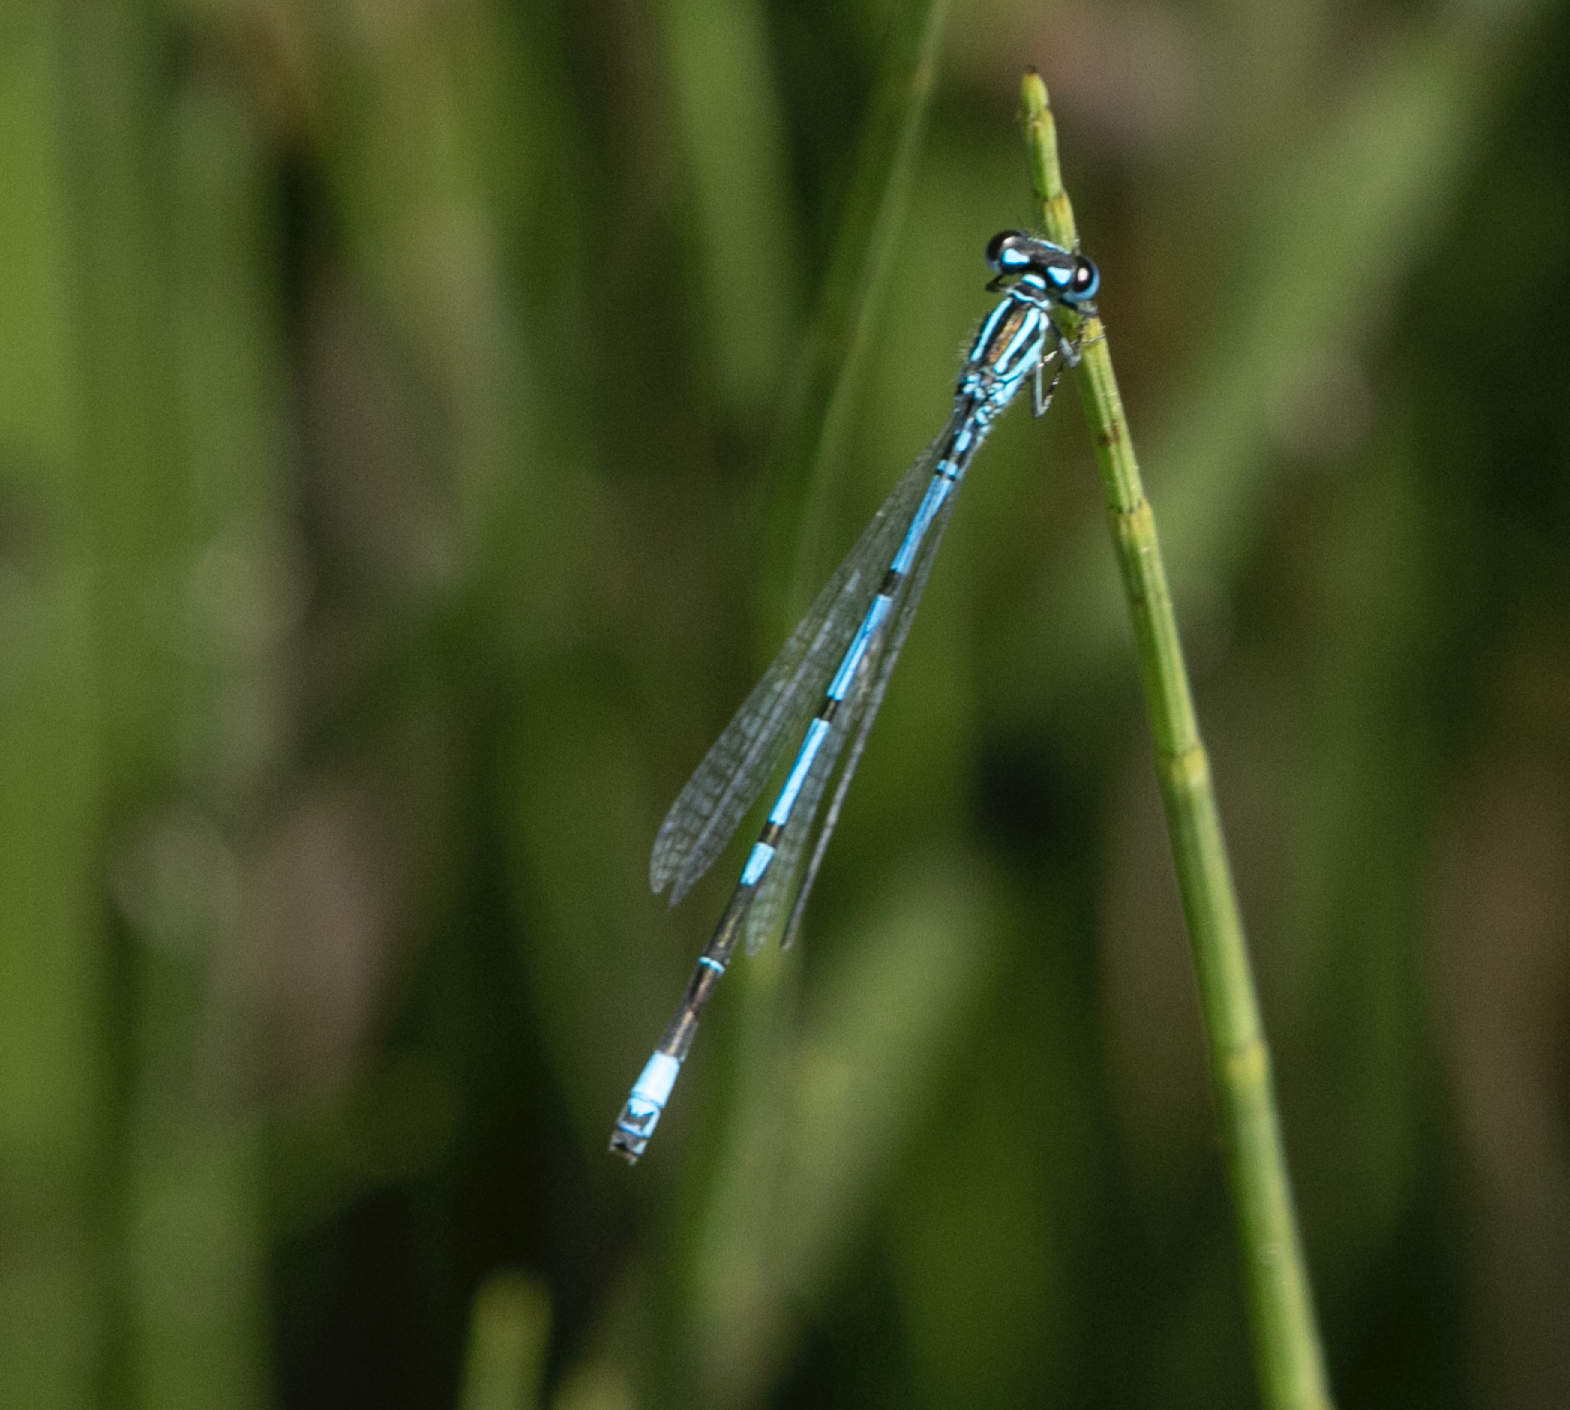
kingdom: Animalia
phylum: Arthropoda
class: Insecta
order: Odonata
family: Coenagrionidae
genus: Coenagrion
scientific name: Coenagrion puella
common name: Azure damselfly
